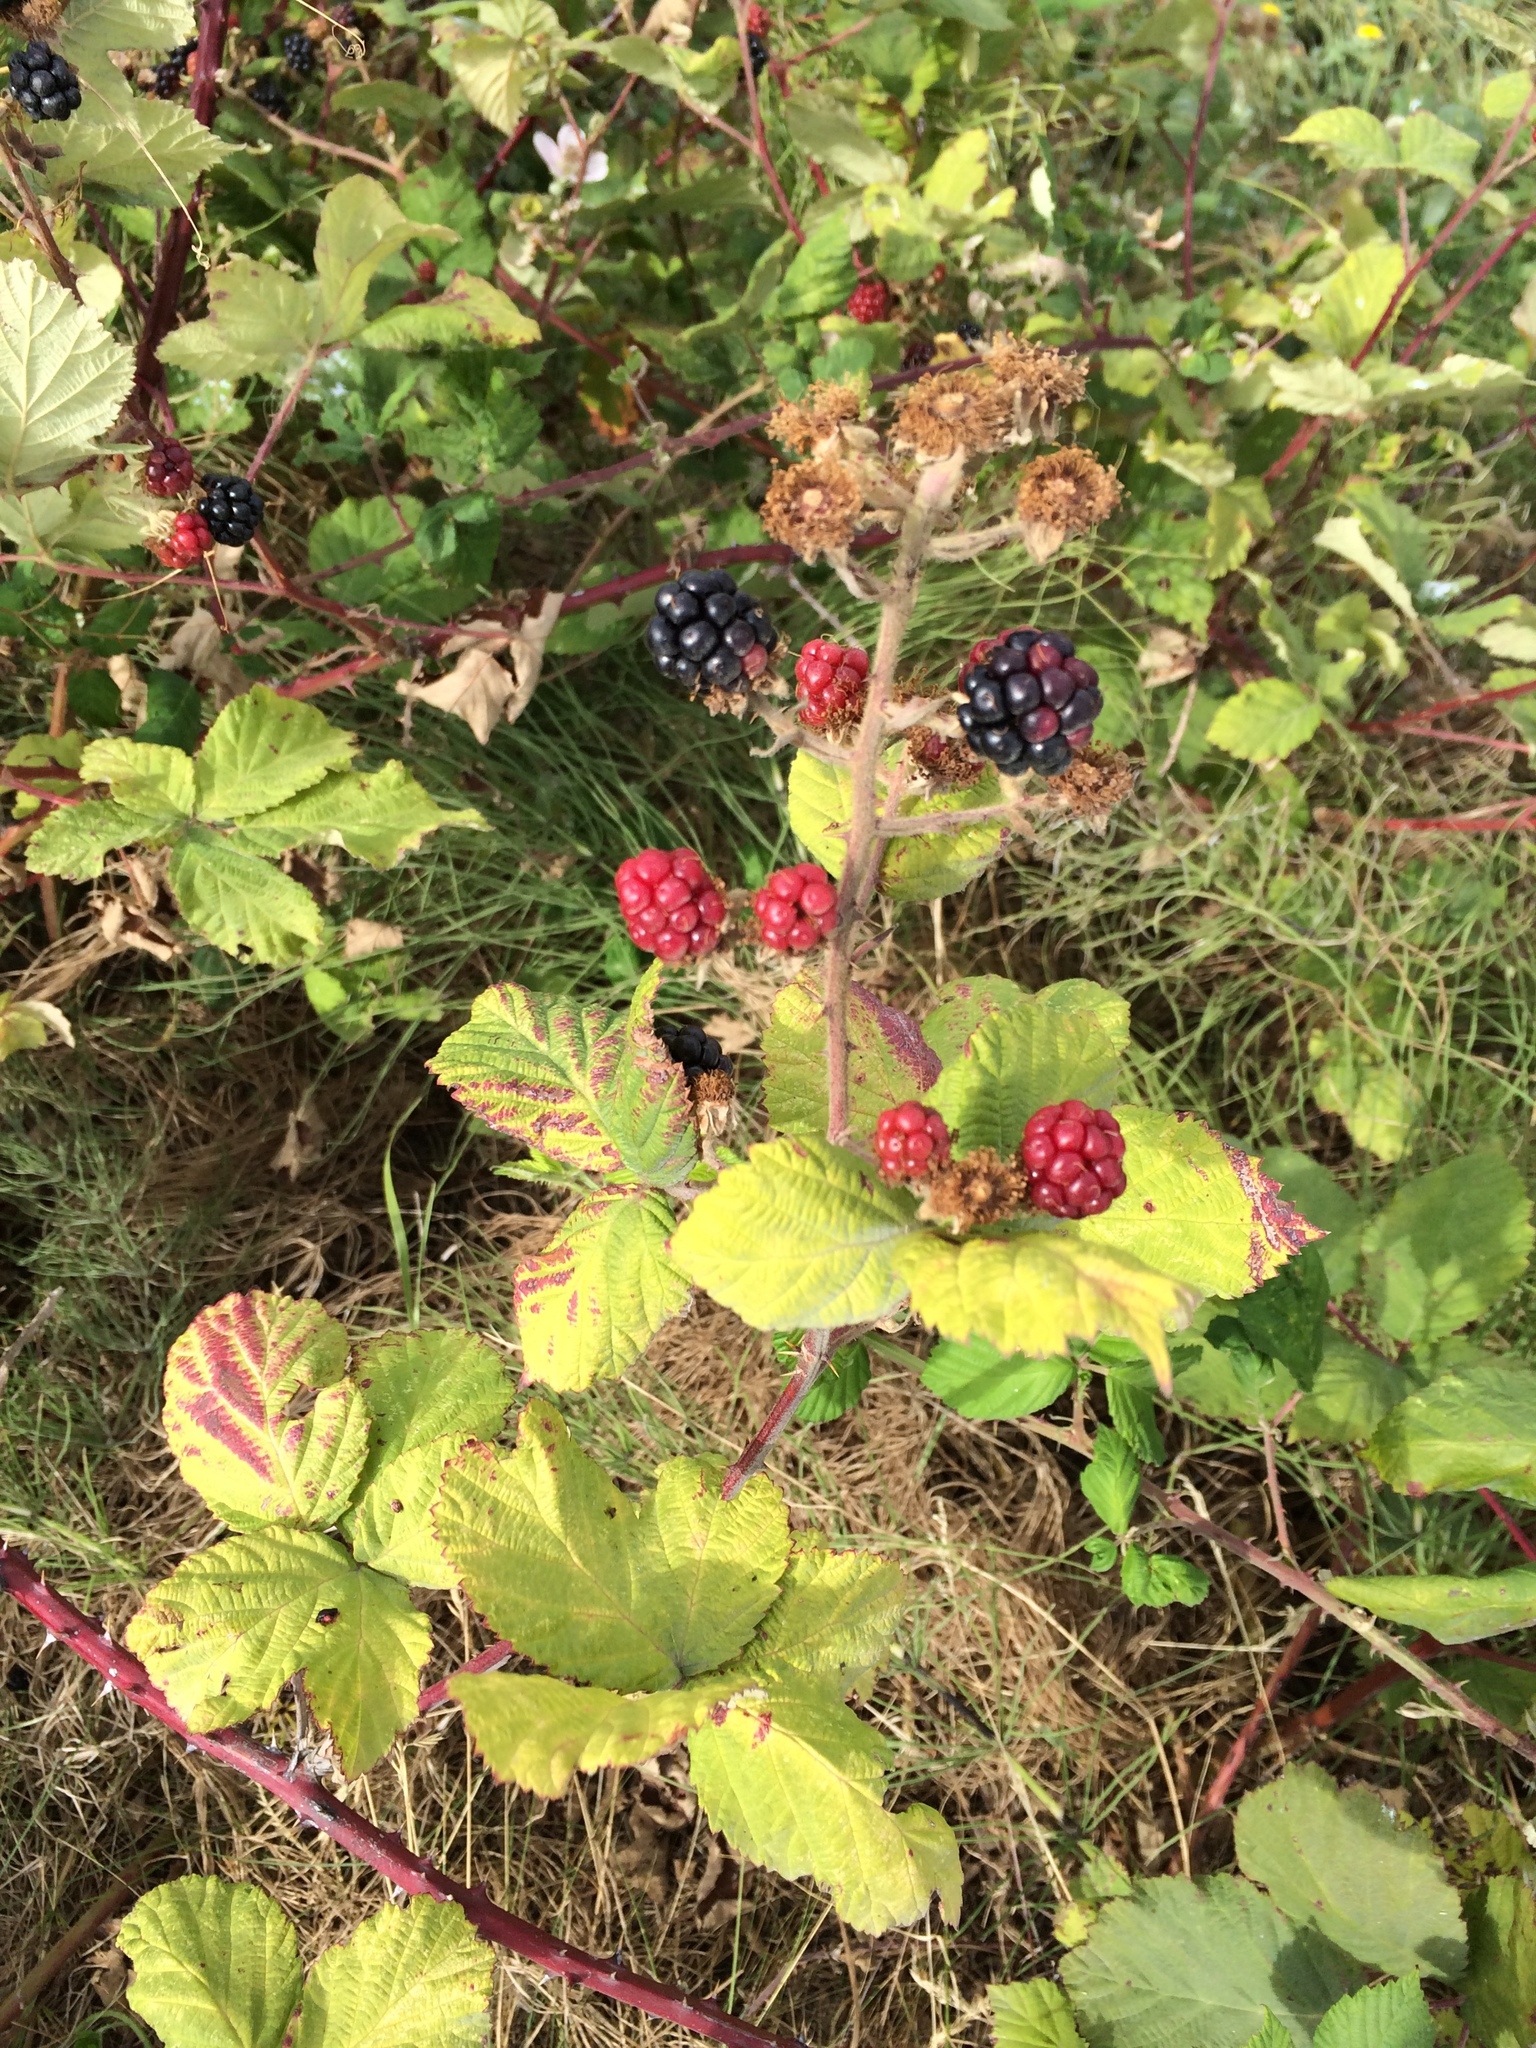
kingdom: Plantae
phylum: Tracheophyta
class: Magnoliopsida
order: Rosales
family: Rosaceae
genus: Rubus
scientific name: Rubus bifrons
